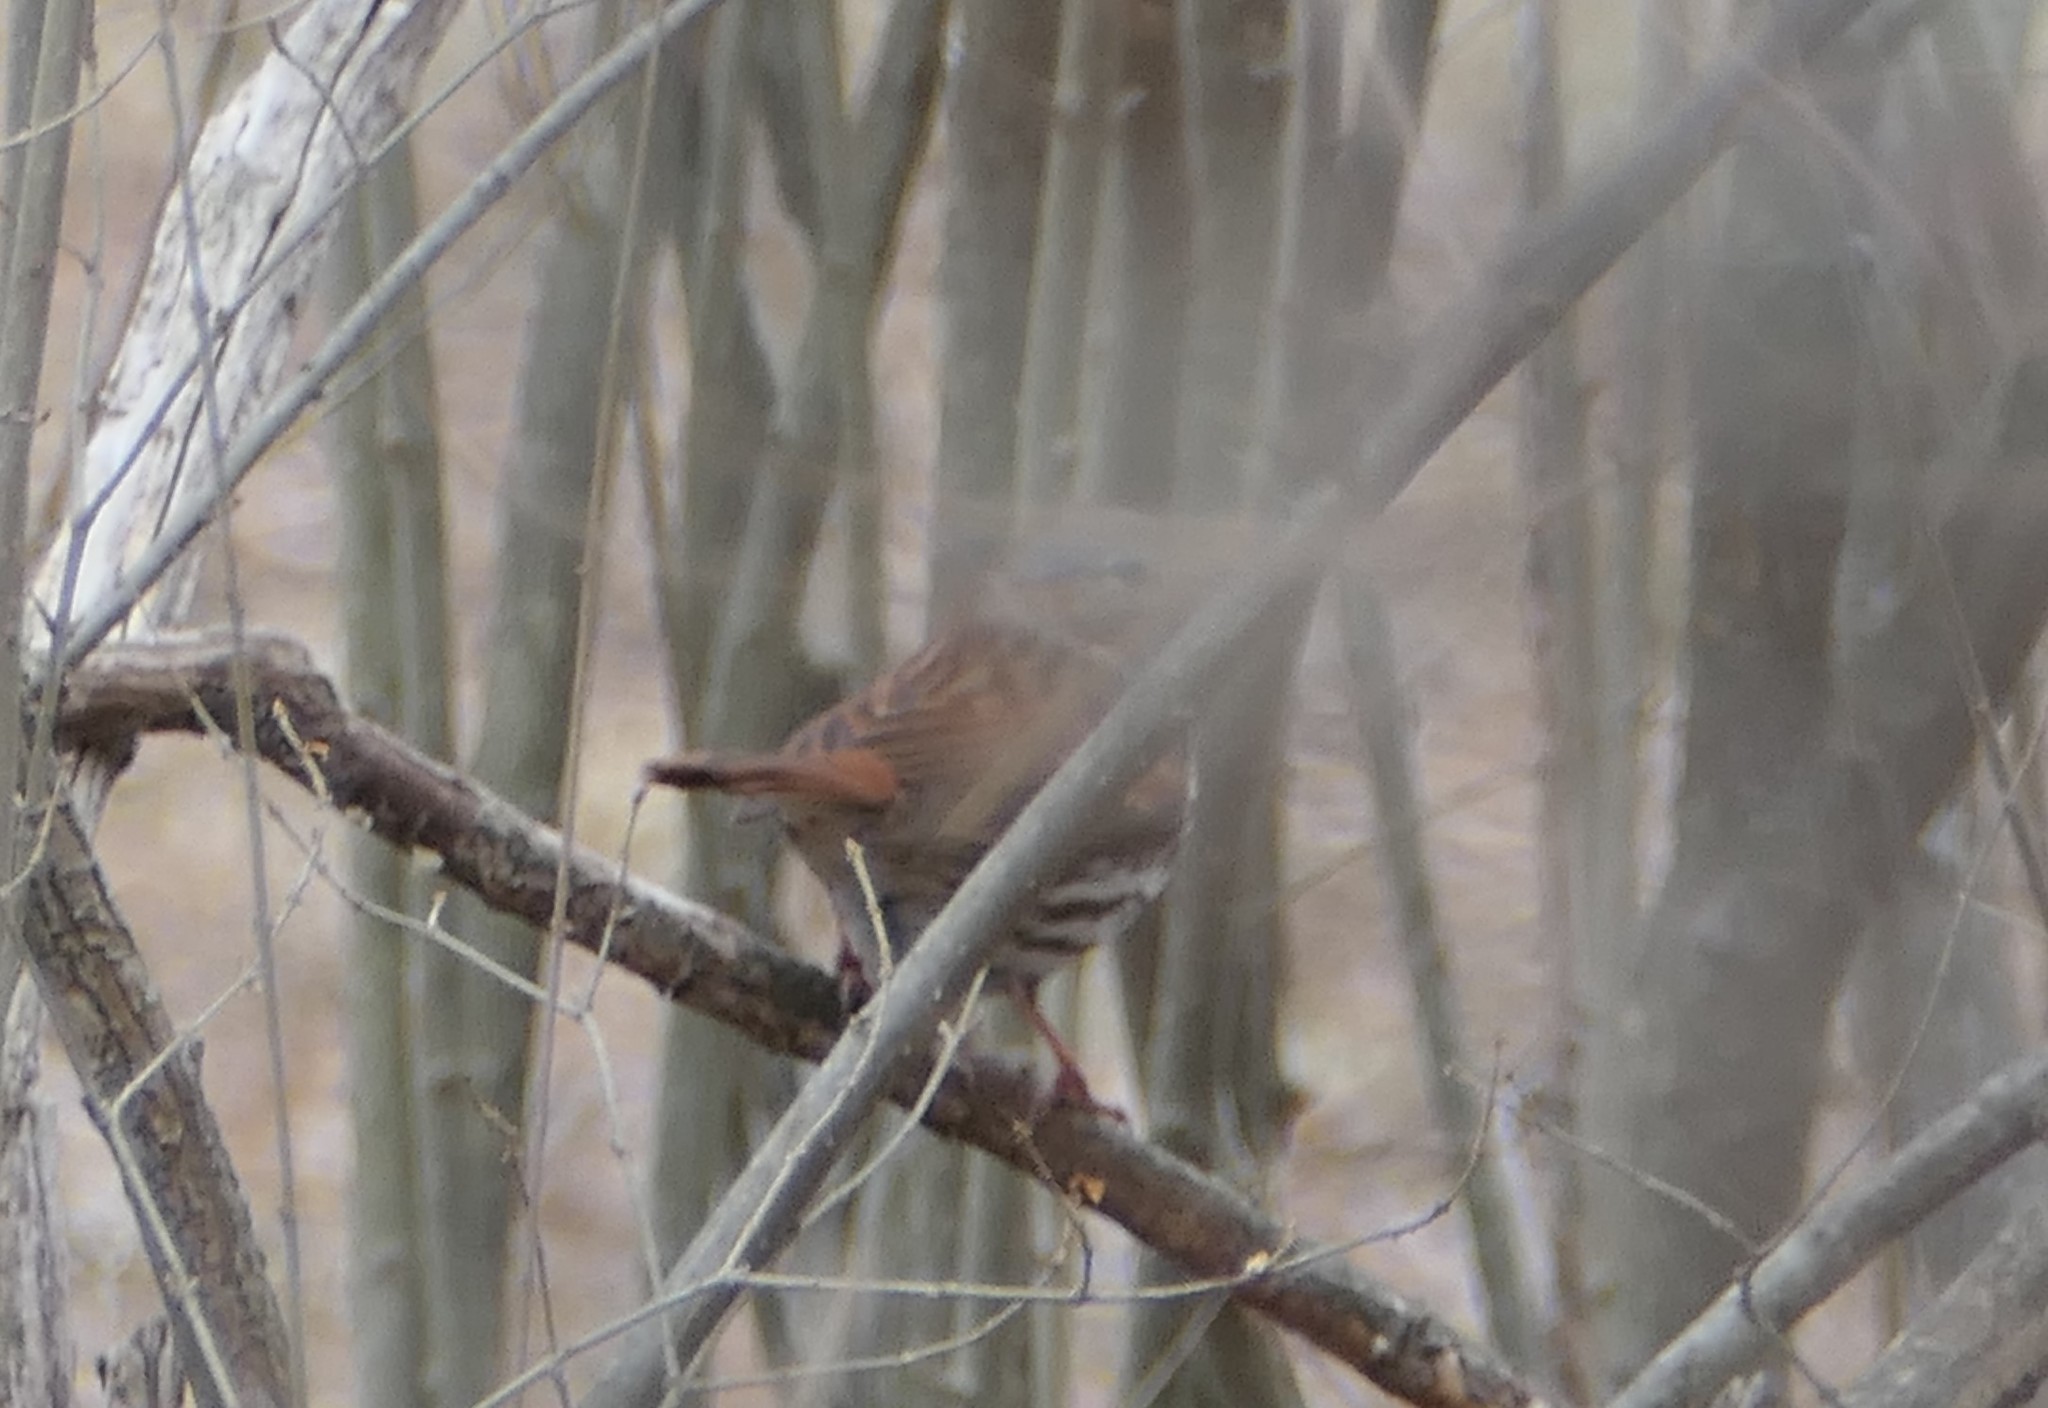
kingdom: Animalia
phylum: Chordata
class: Aves
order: Passeriformes
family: Passerellidae
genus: Passerella
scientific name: Passerella iliaca
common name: Fox sparrow
